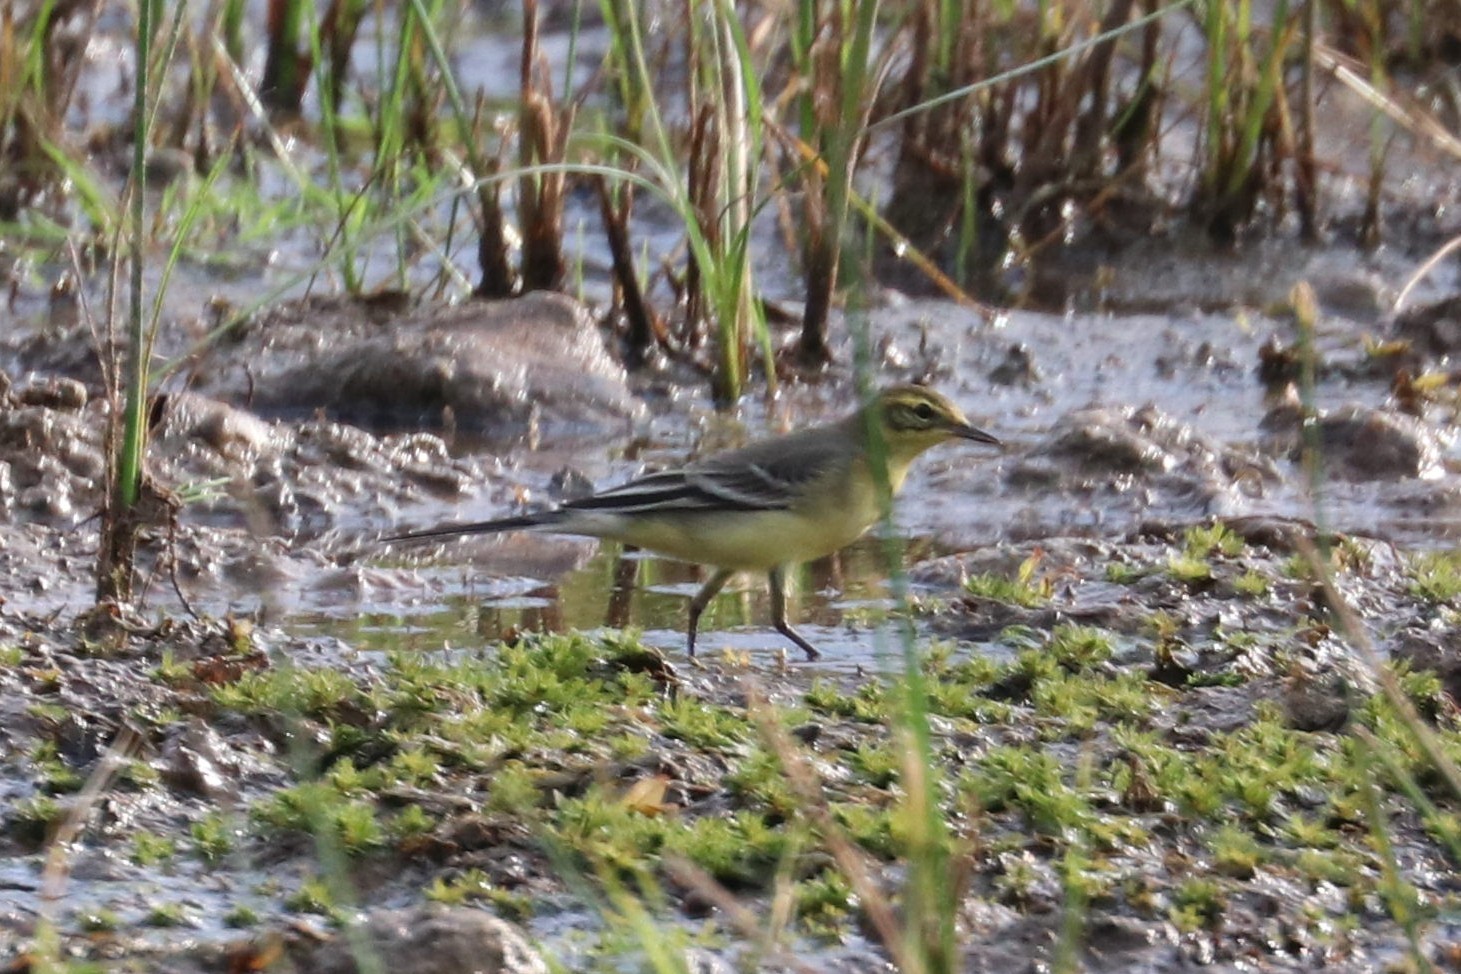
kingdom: Animalia
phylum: Chordata
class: Aves
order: Passeriformes
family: Motacillidae
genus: Motacilla
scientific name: Motacilla citreola
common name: Citrine wagtail
